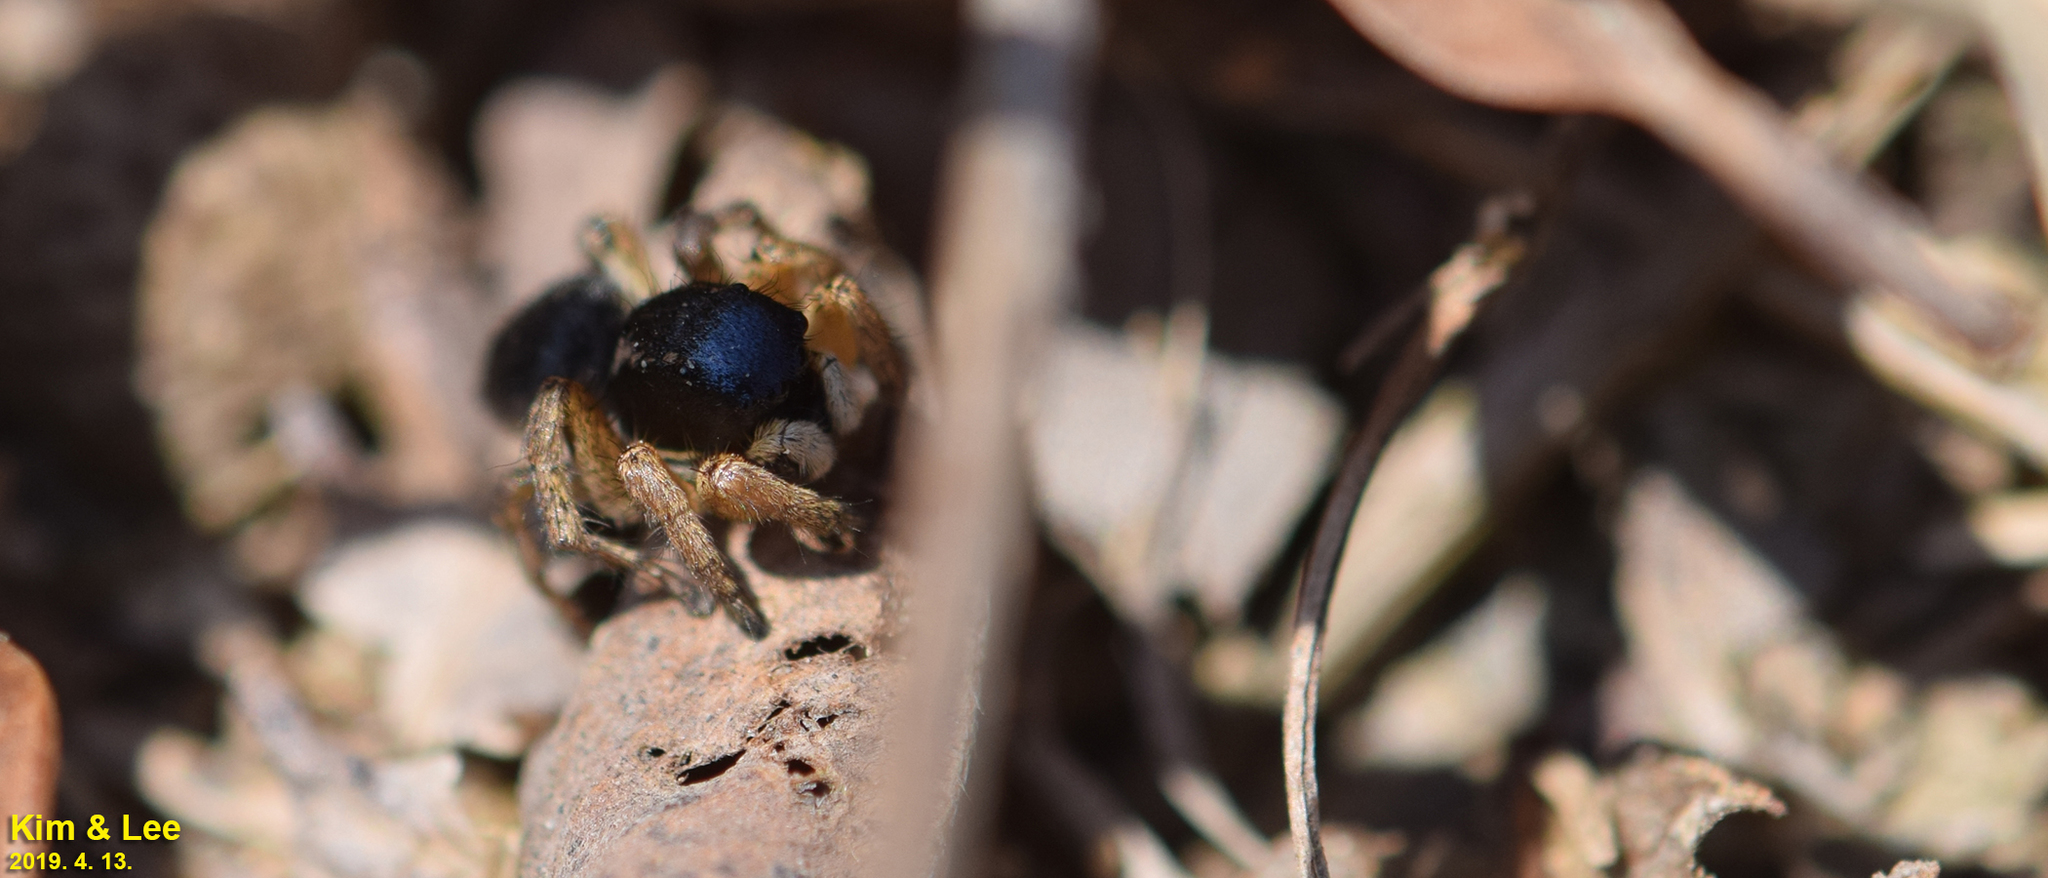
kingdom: Animalia
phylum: Arthropoda
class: Arachnida
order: Araneae
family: Salticidae
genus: Asianellus
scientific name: Asianellus festivus
